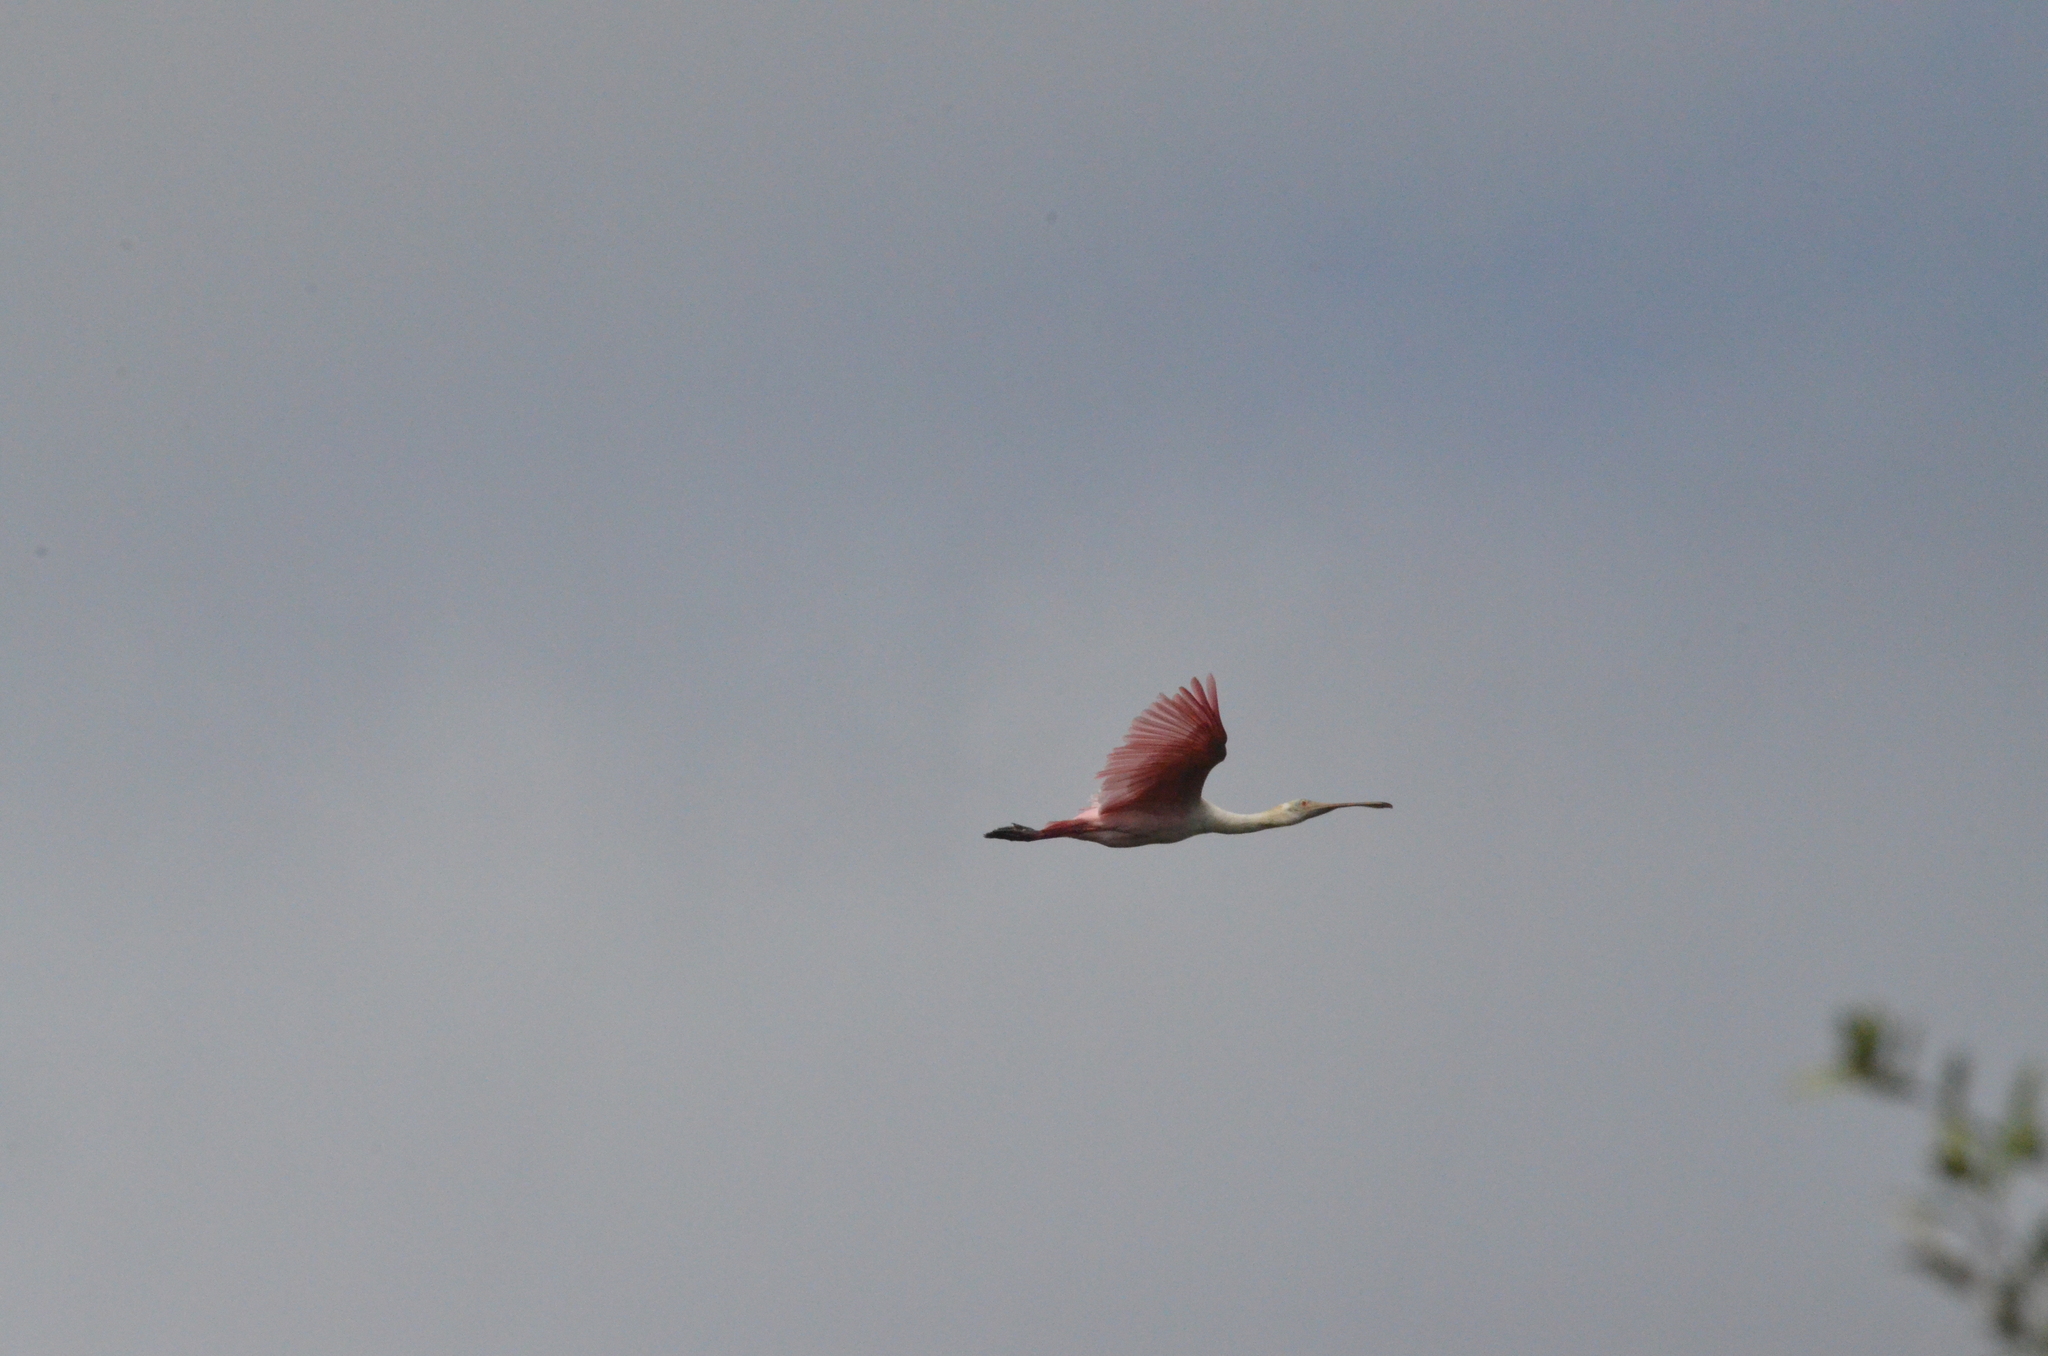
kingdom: Animalia
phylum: Chordata
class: Aves
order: Pelecaniformes
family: Threskiornithidae
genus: Platalea
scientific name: Platalea ajaja
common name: Roseate spoonbill
